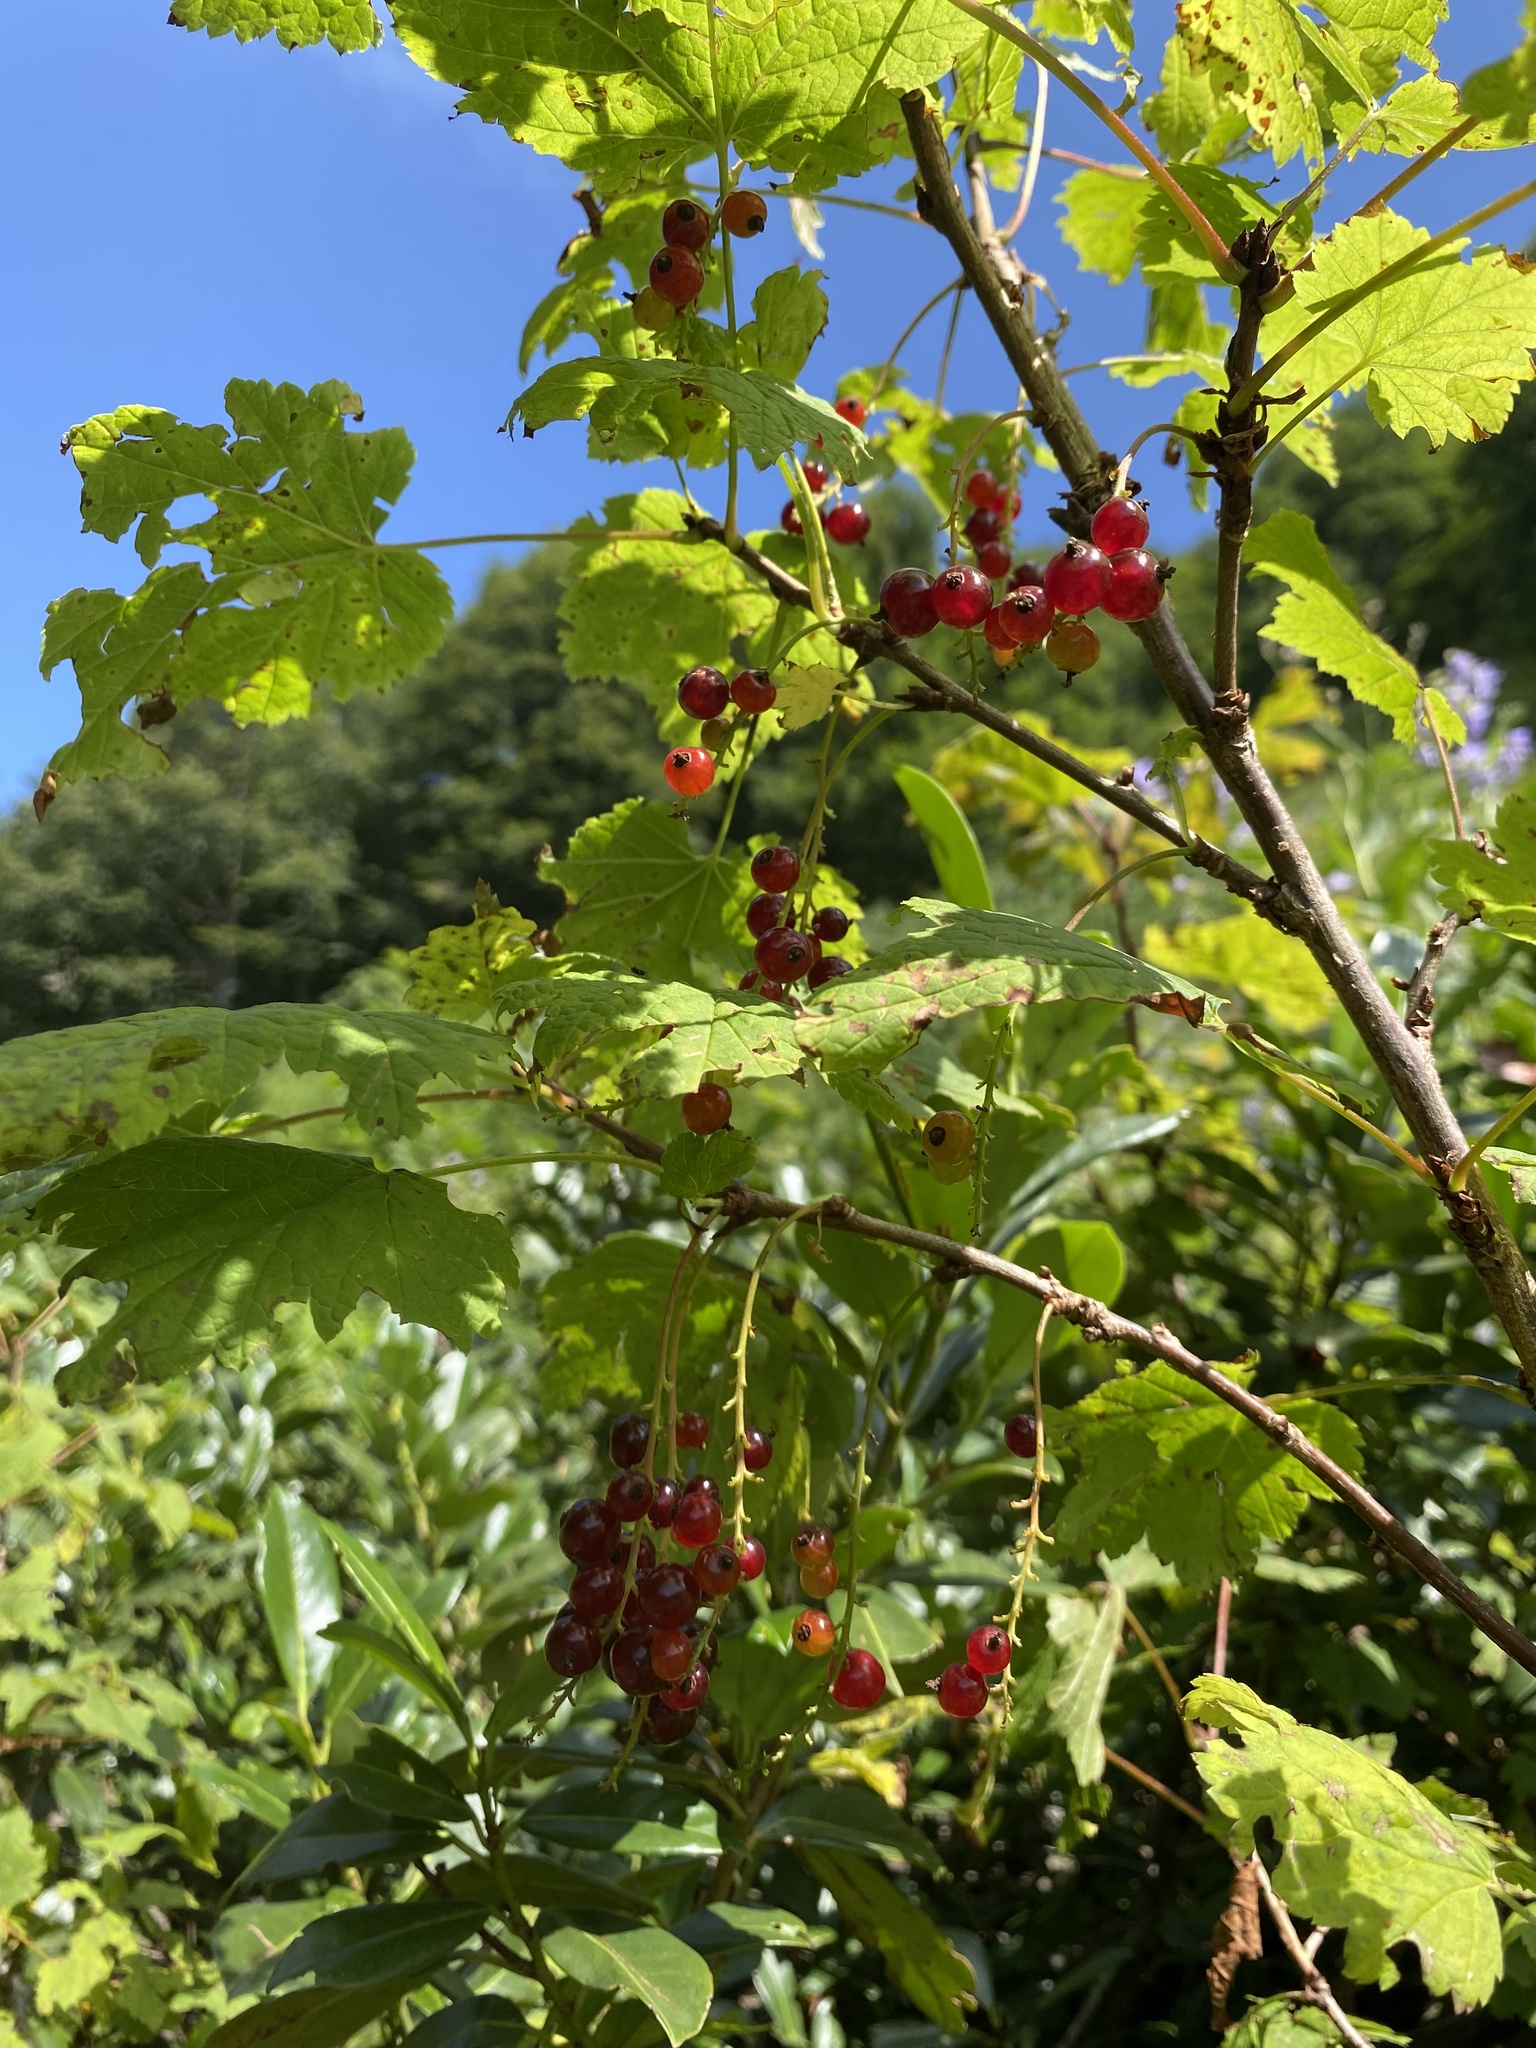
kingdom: Plantae
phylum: Tracheophyta
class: Magnoliopsida
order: Saxifragales
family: Grossulariaceae
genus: Ribes
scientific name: Ribes biebersteinii
